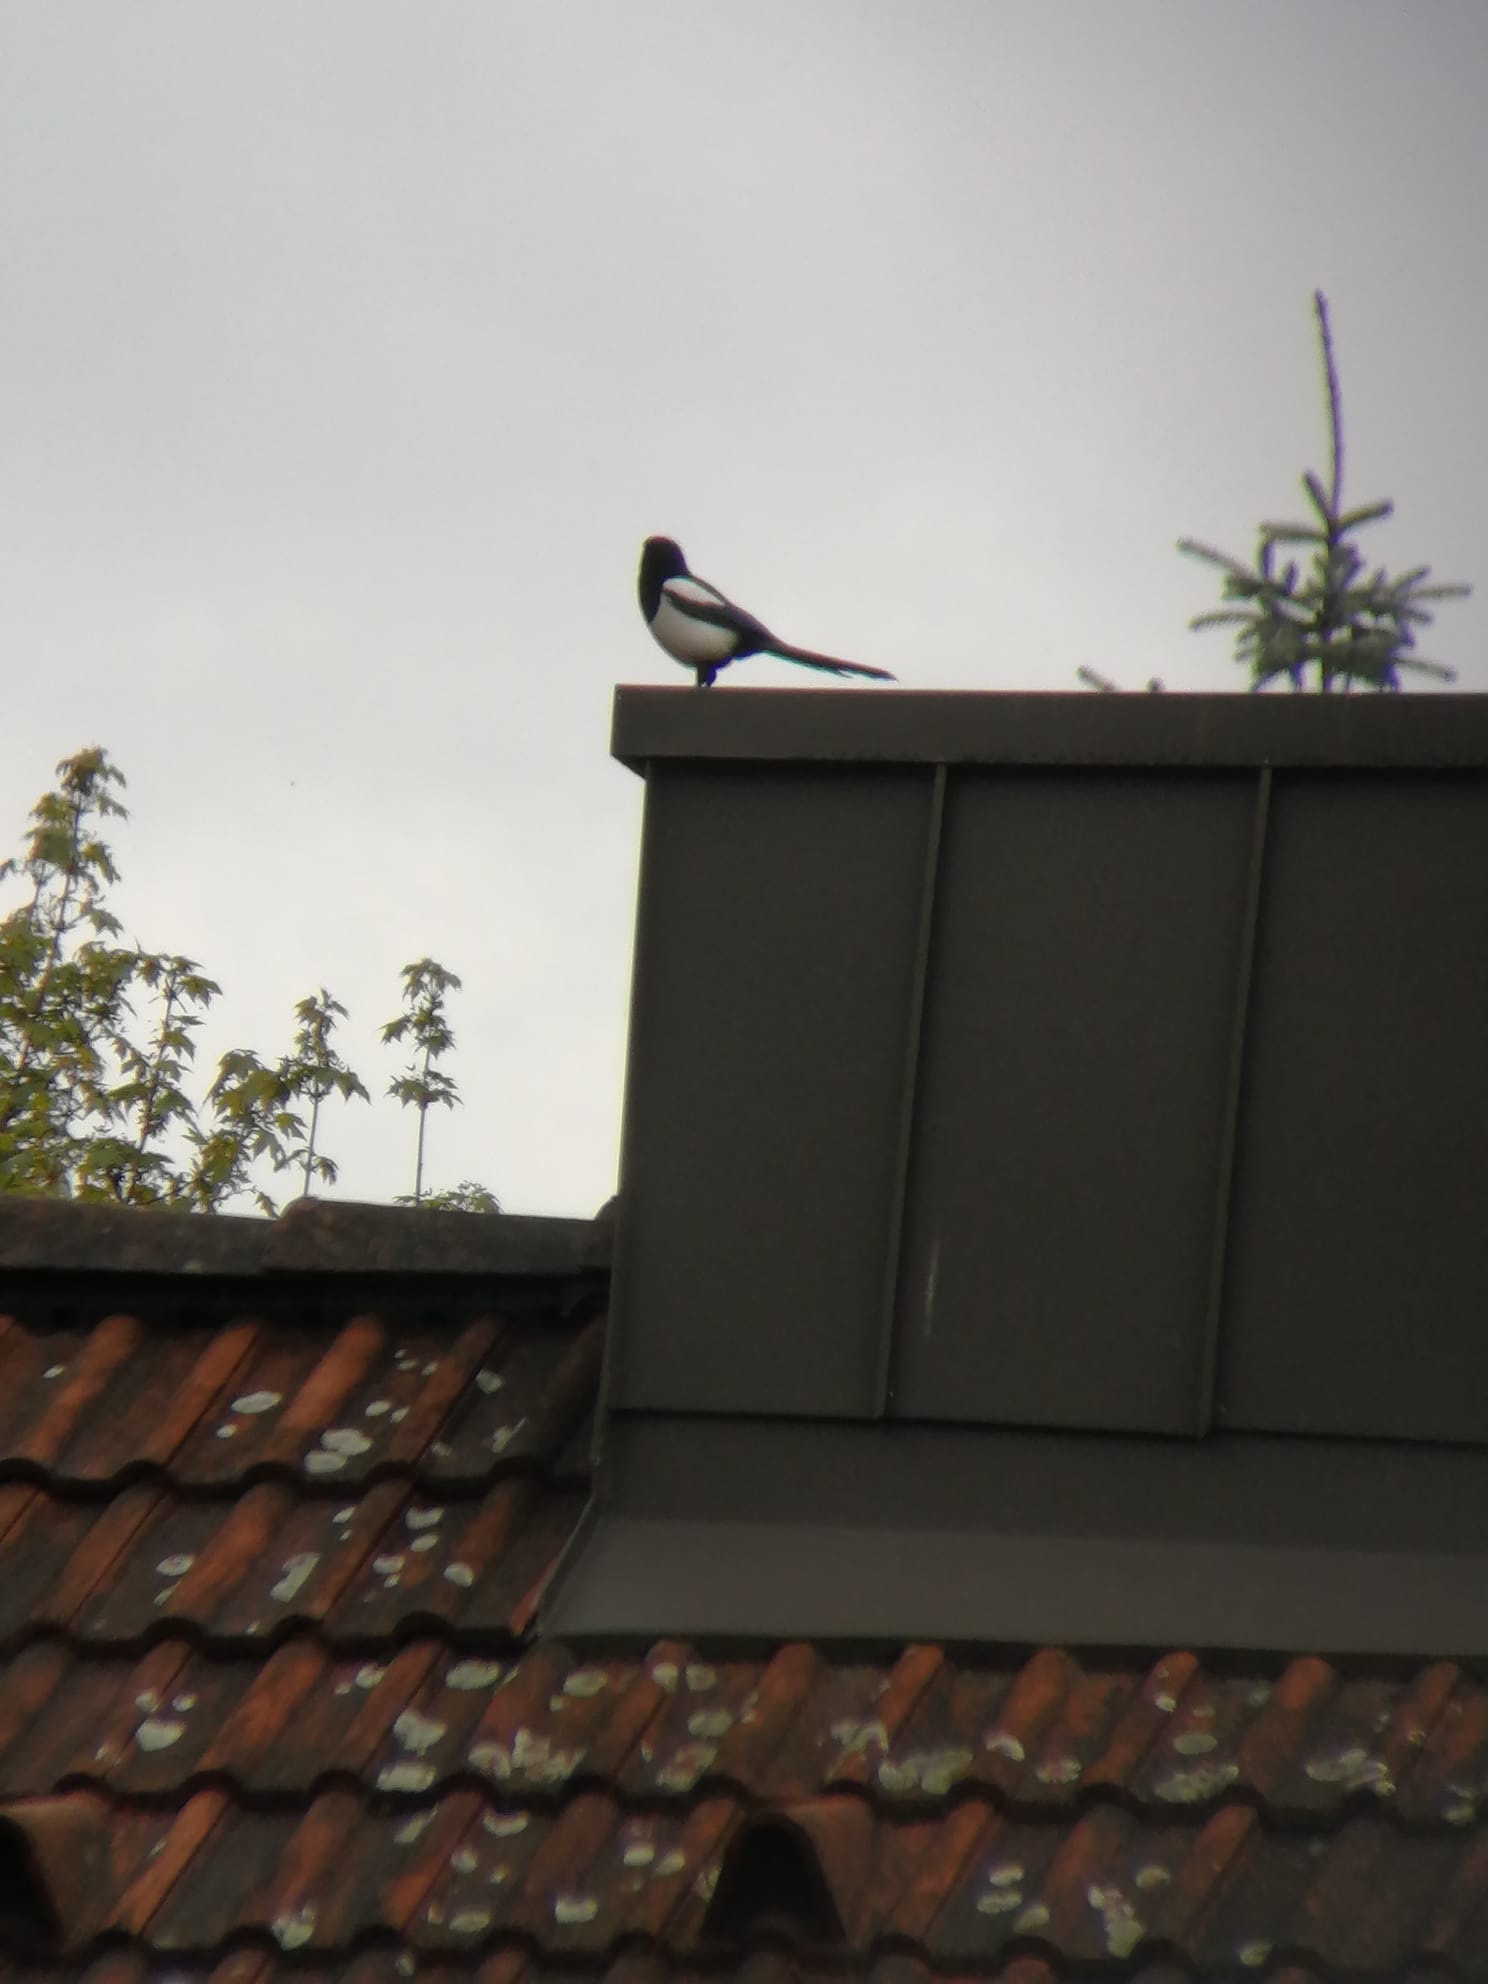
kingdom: Animalia
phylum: Chordata
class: Aves
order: Passeriformes
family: Corvidae
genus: Pica
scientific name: Pica pica
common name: Eurasian magpie
